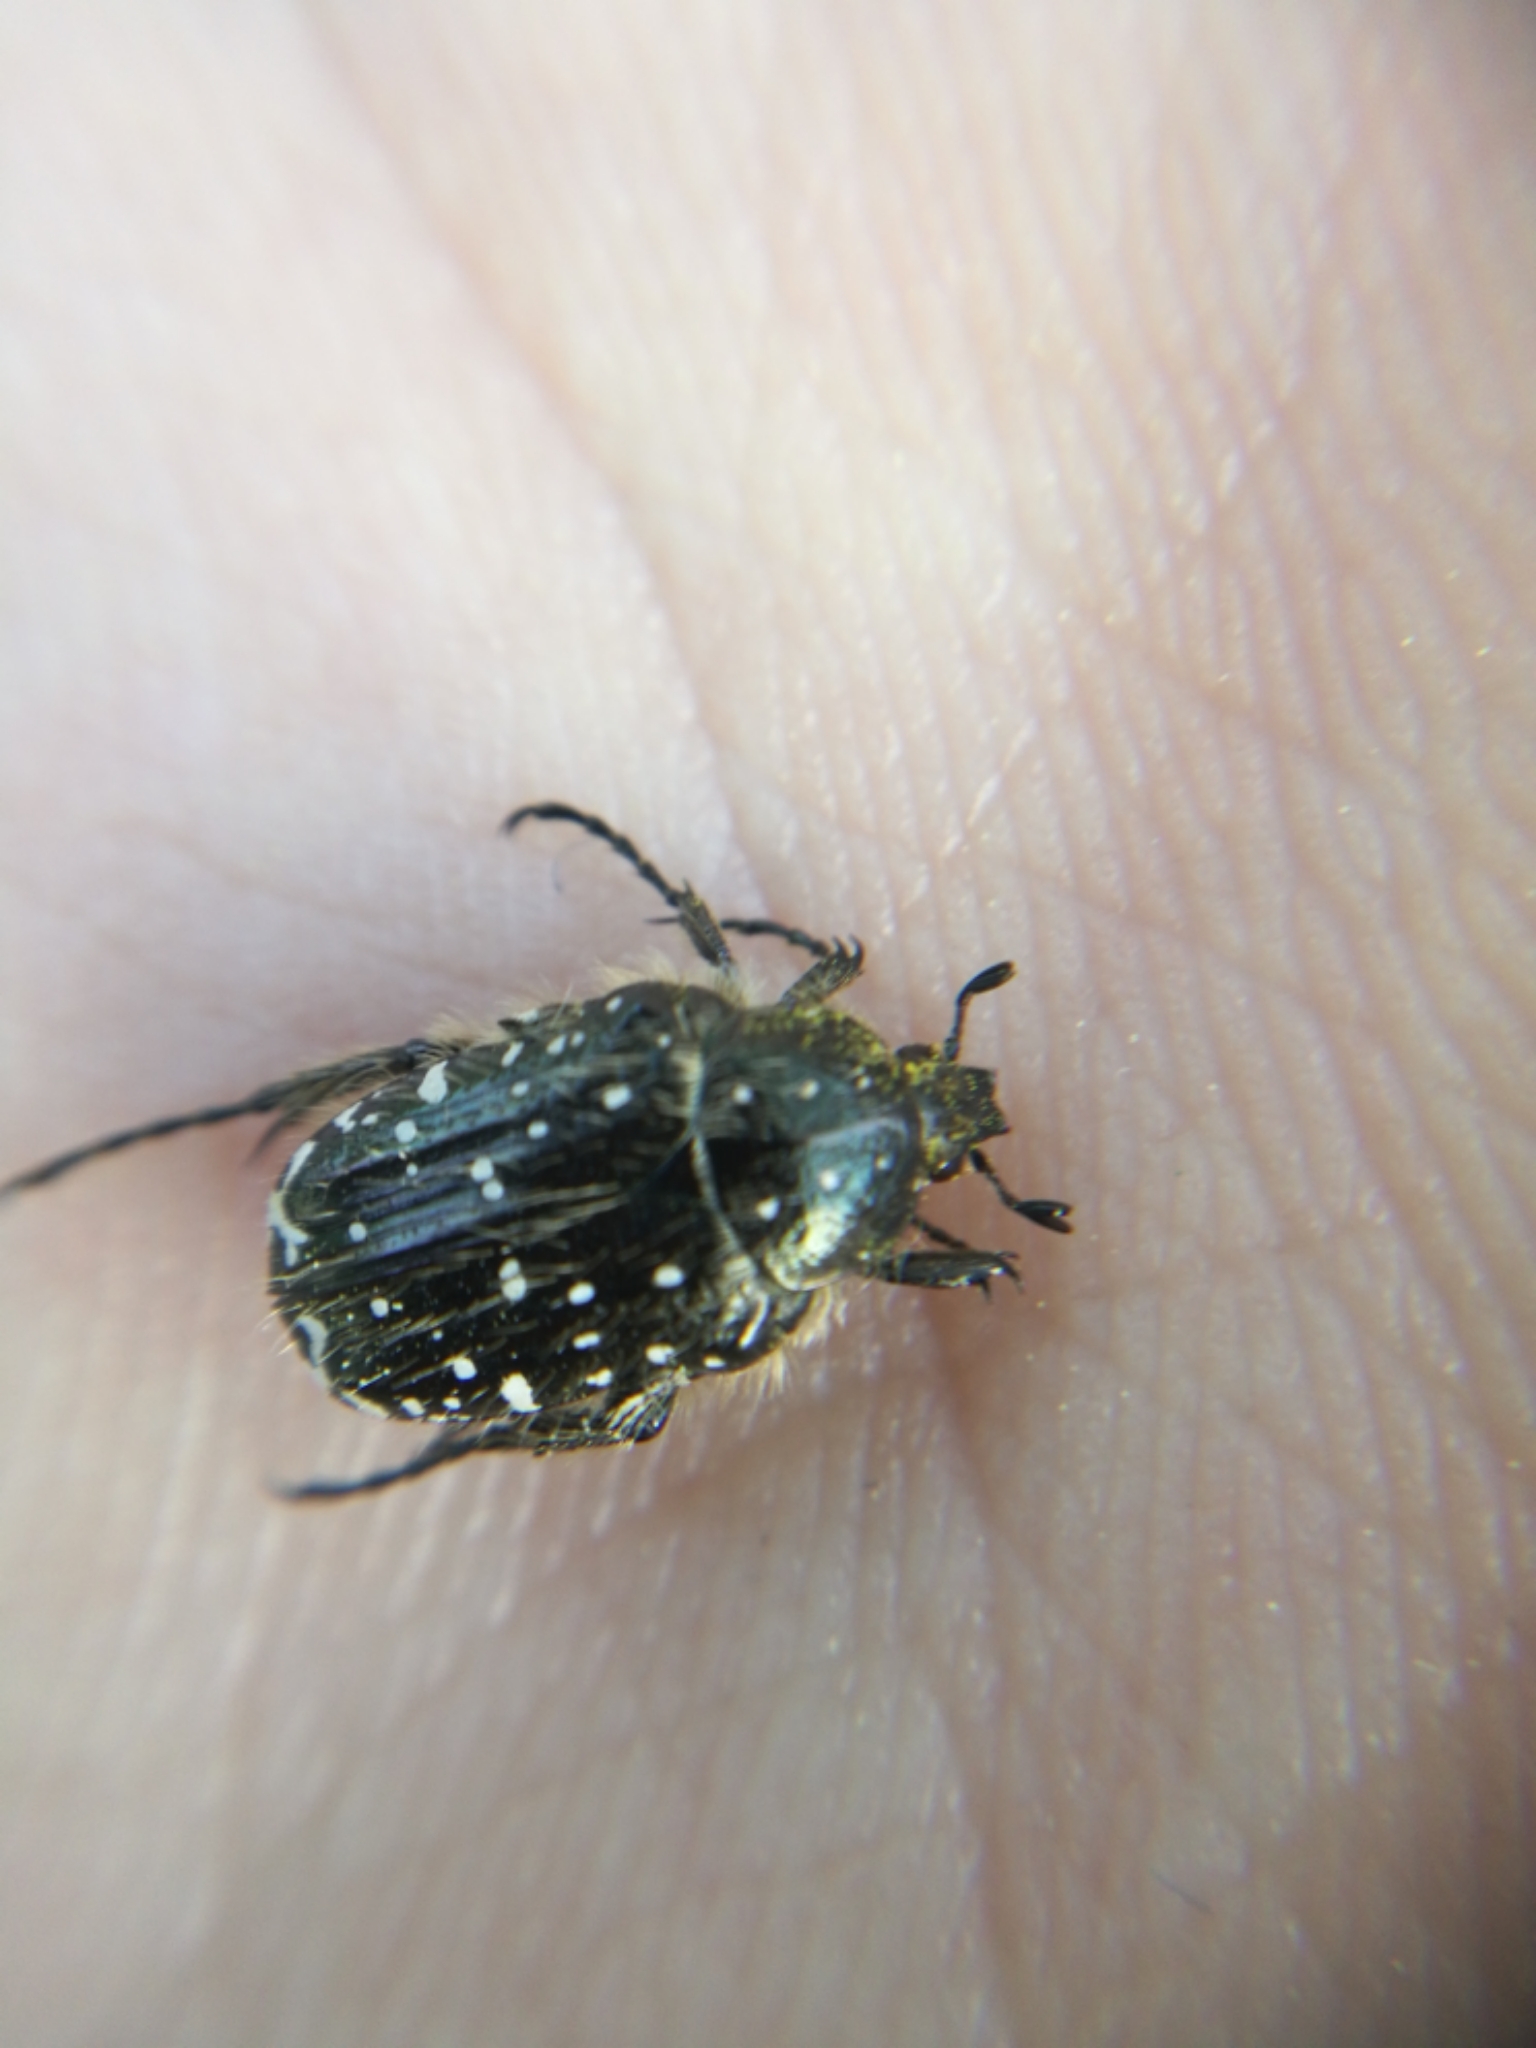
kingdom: Animalia
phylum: Arthropoda
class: Insecta
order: Coleoptera
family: Scarabaeidae
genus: Oxythyrea
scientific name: Oxythyrea funesta
